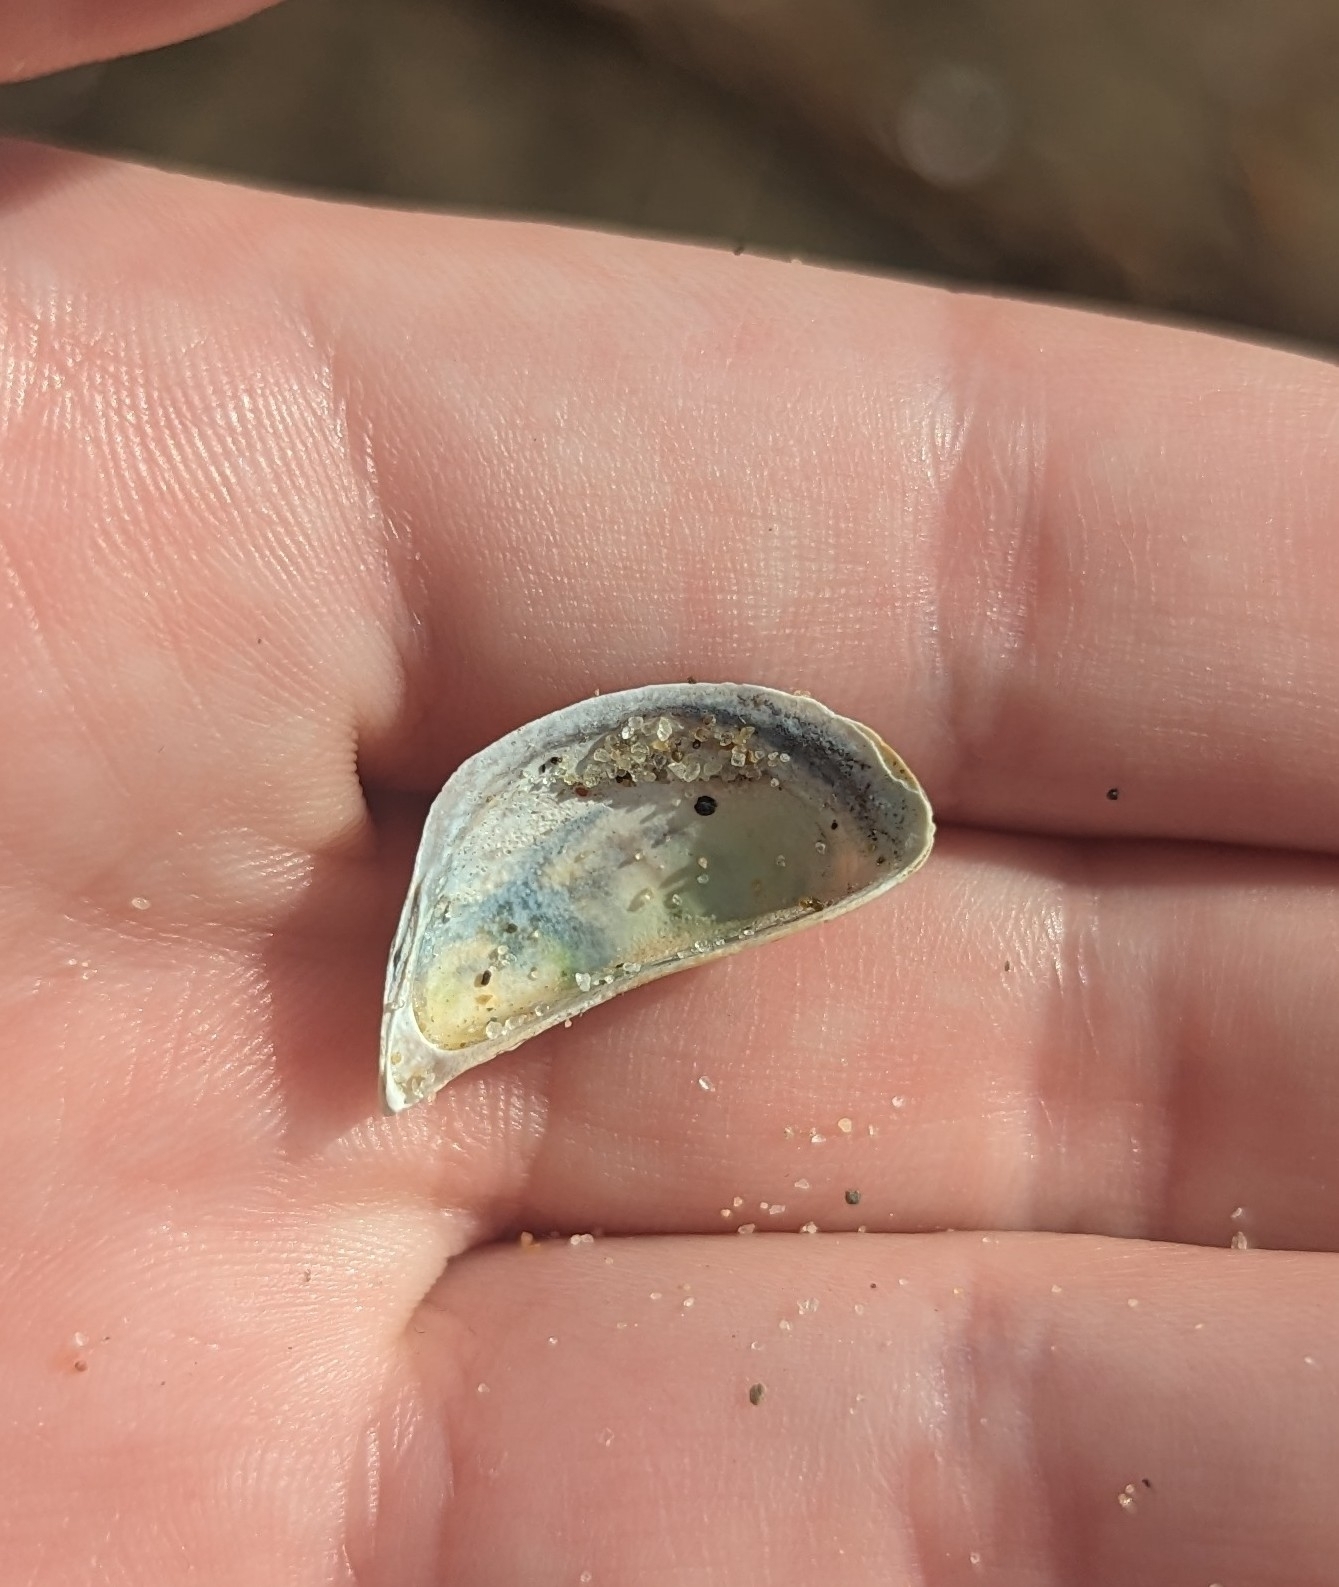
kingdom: Animalia
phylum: Mollusca
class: Bivalvia
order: Myida
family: Dreissenidae
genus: Dreissena
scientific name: Dreissena polymorpha
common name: Zebra mussel
